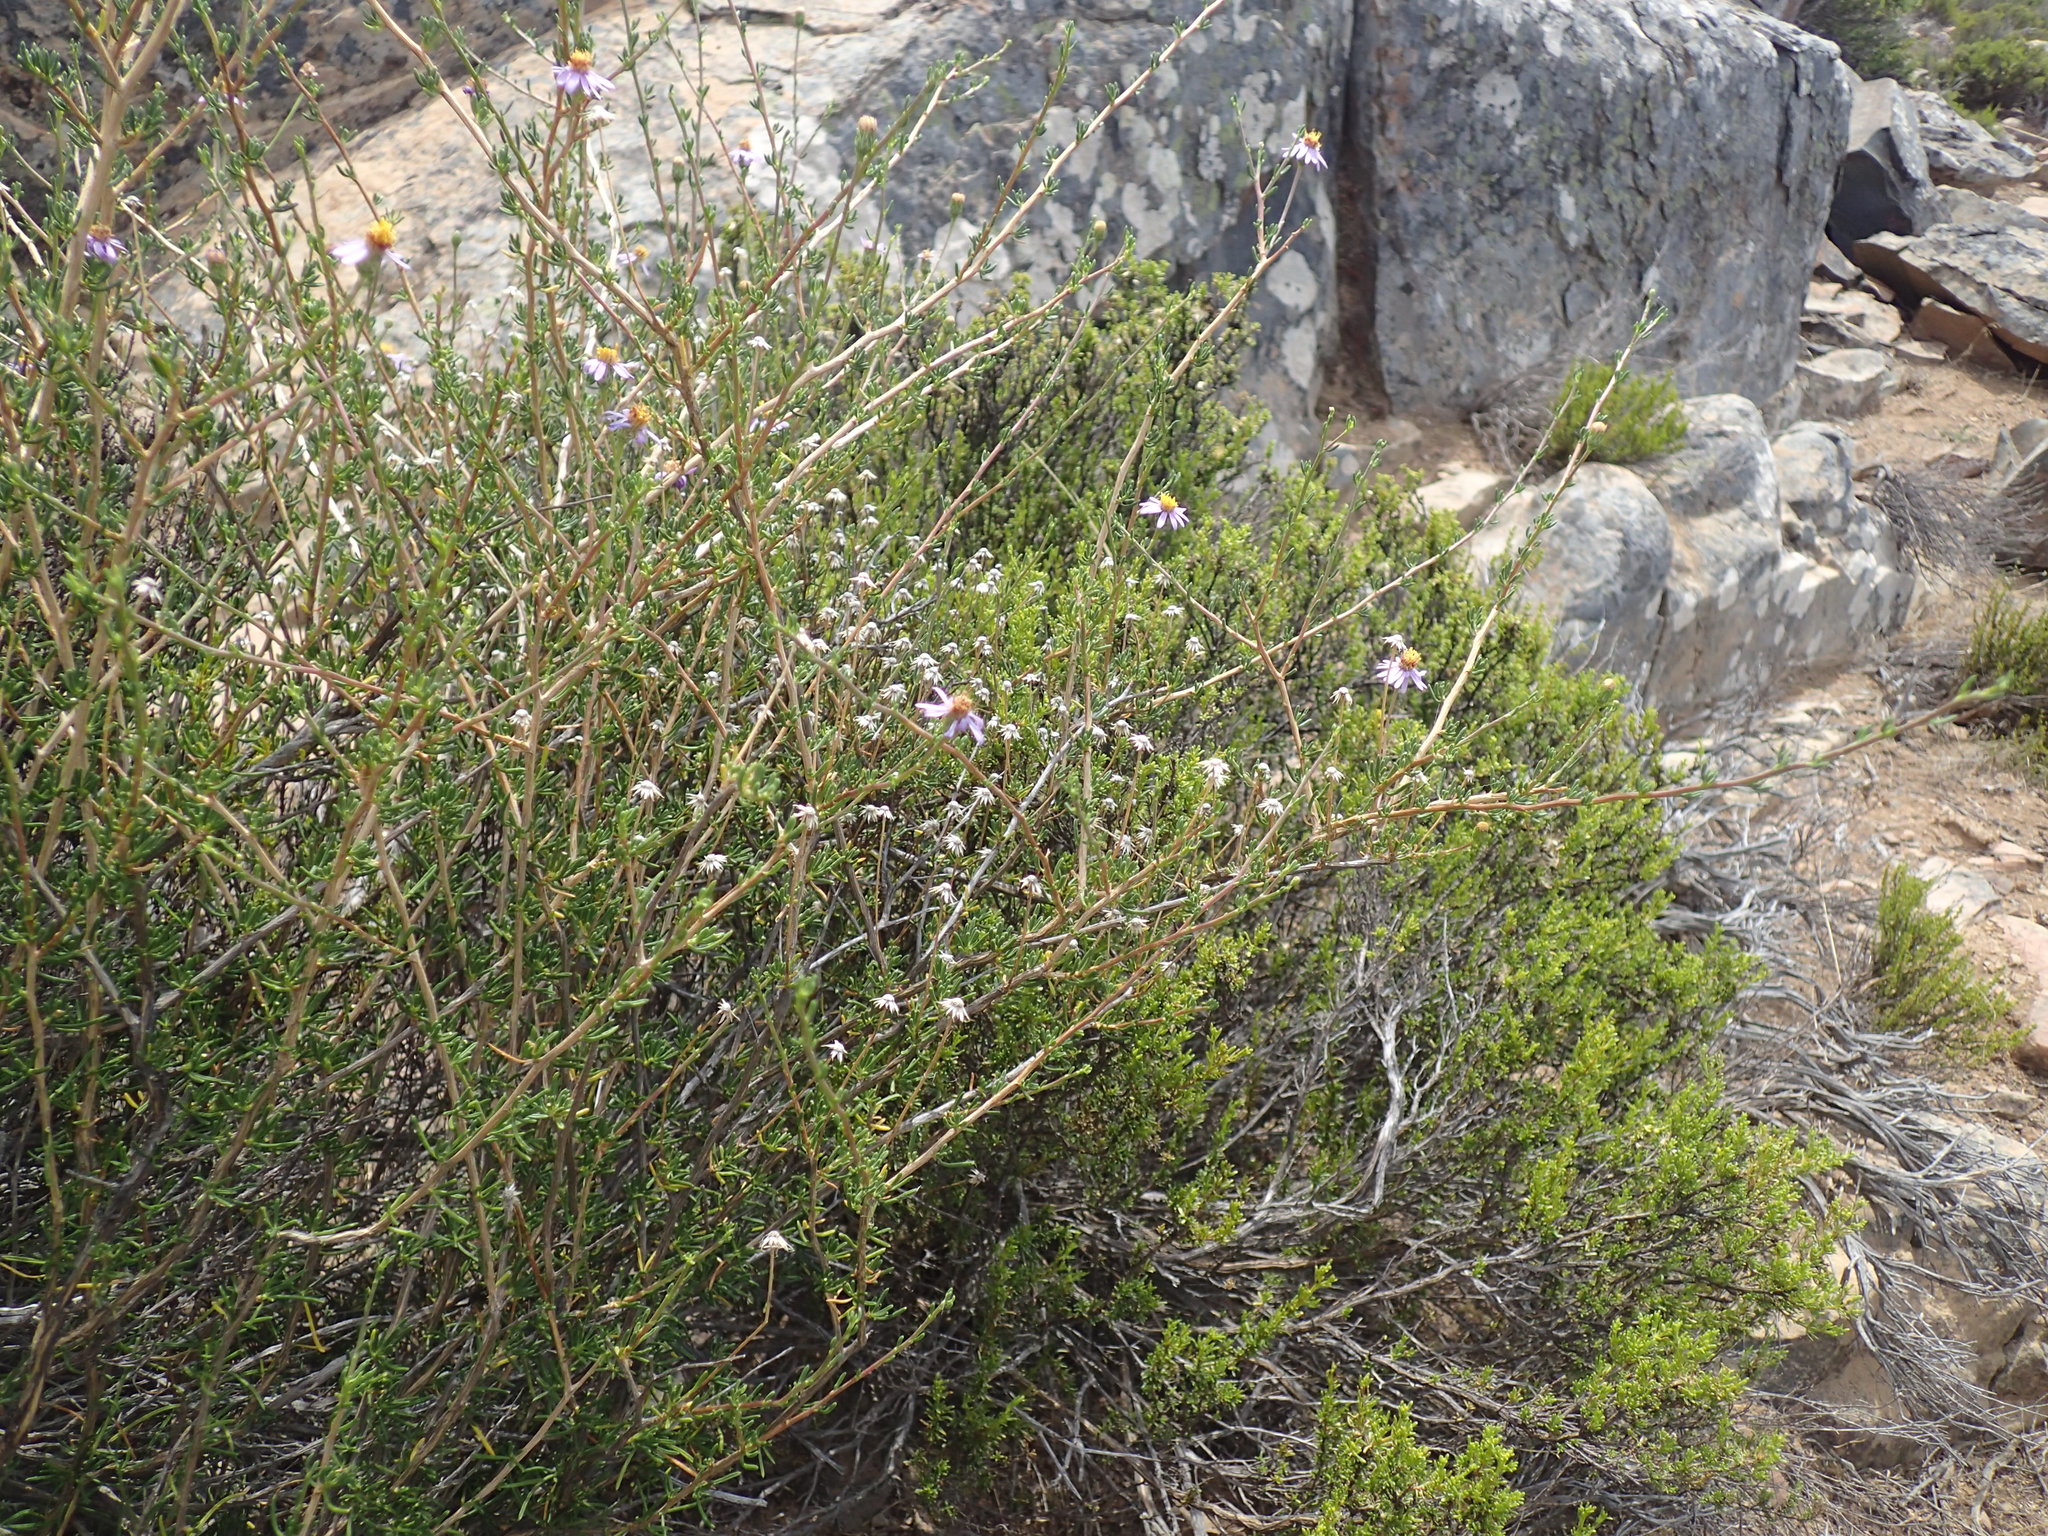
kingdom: Plantae
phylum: Tracheophyta
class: Magnoliopsida
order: Asterales
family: Asteraceae
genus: Felicia
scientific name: Felicia filifolia
